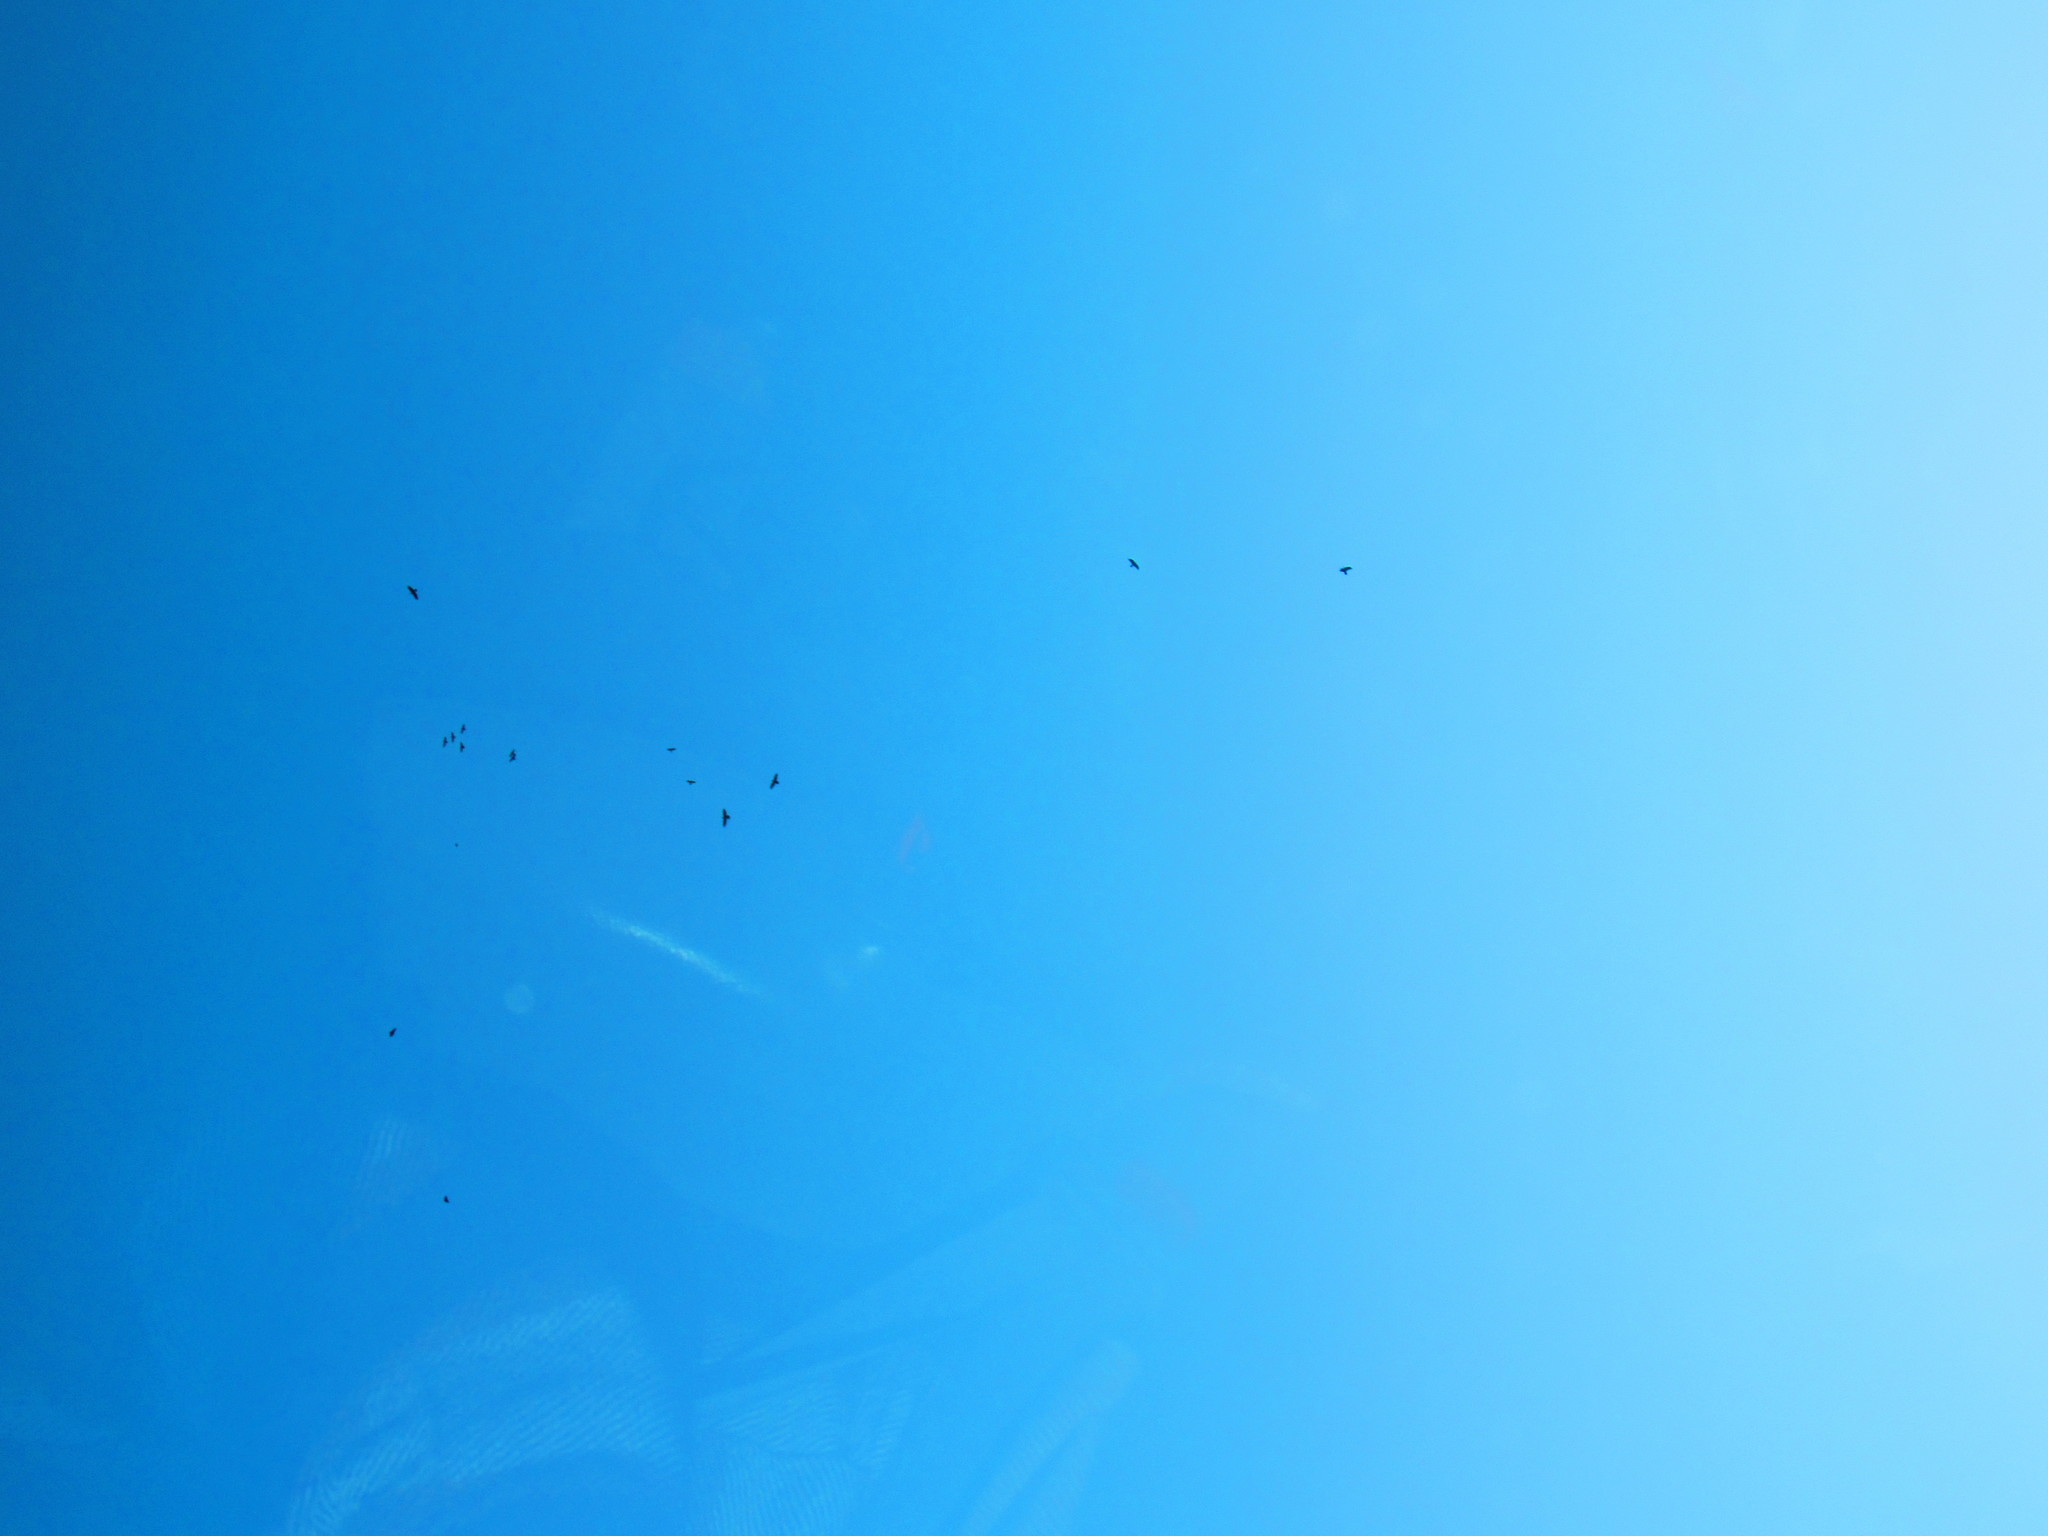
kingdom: Animalia
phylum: Chordata
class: Aves
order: Passeriformes
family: Corvidae
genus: Corvus
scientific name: Corvus corax
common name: Common raven
